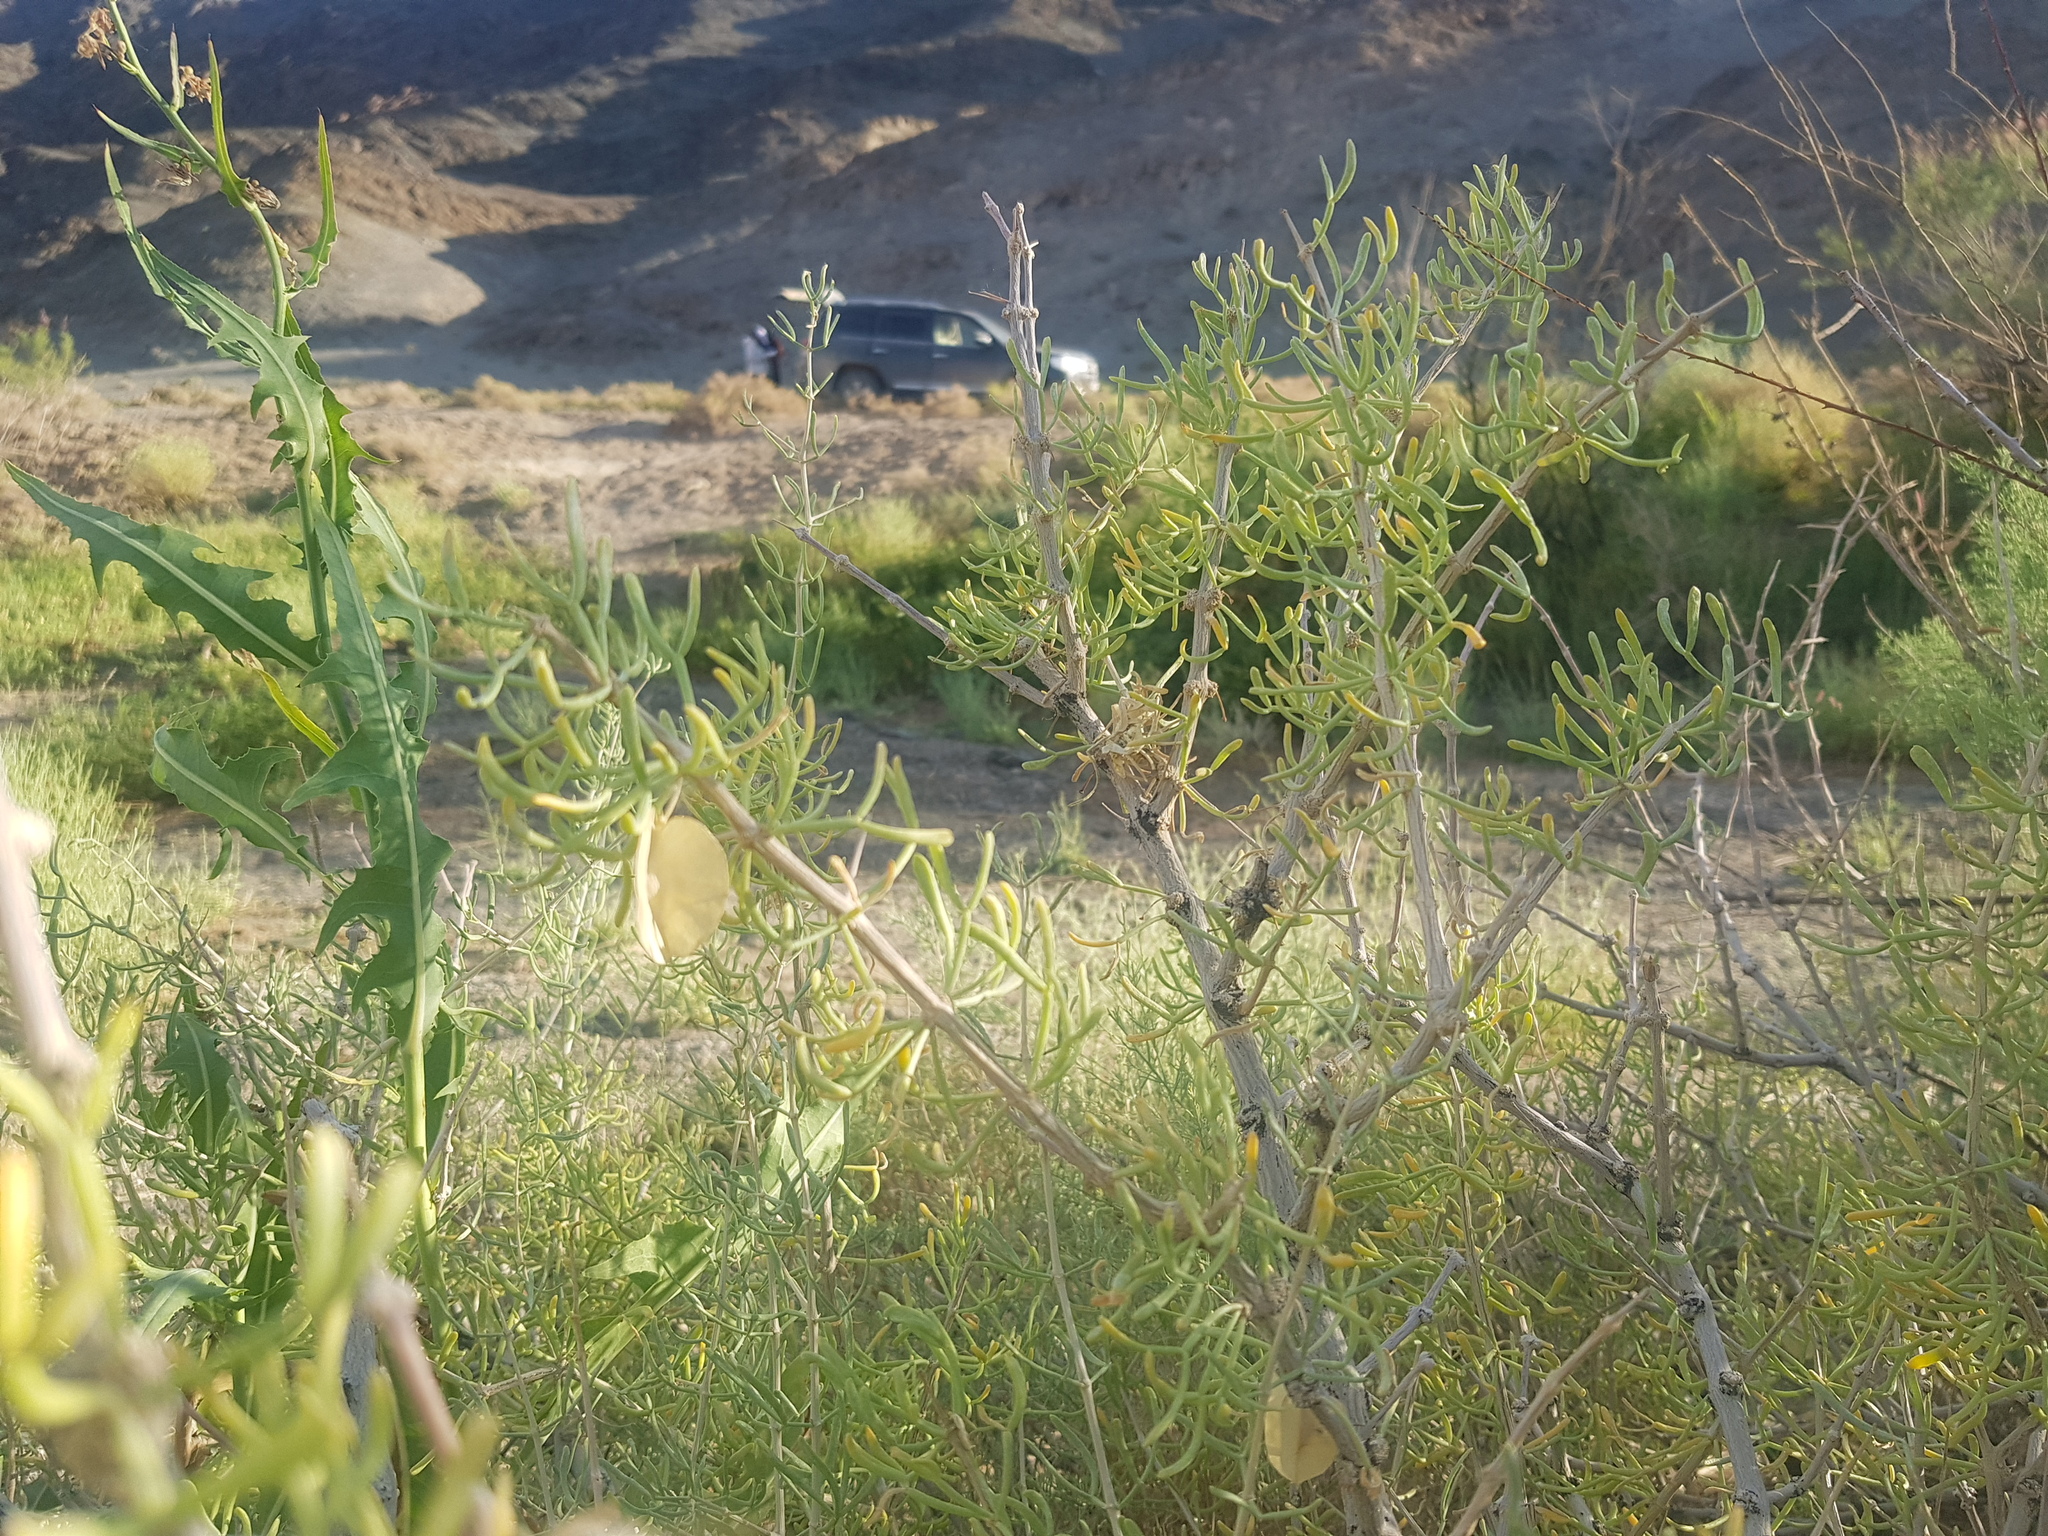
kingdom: Plantae
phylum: Tracheophyta
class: Magnoliopsida
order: Zygophyllales
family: Zygophyllaceae
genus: Zygophyllum
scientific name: Zygophyllum xanthoxylum
